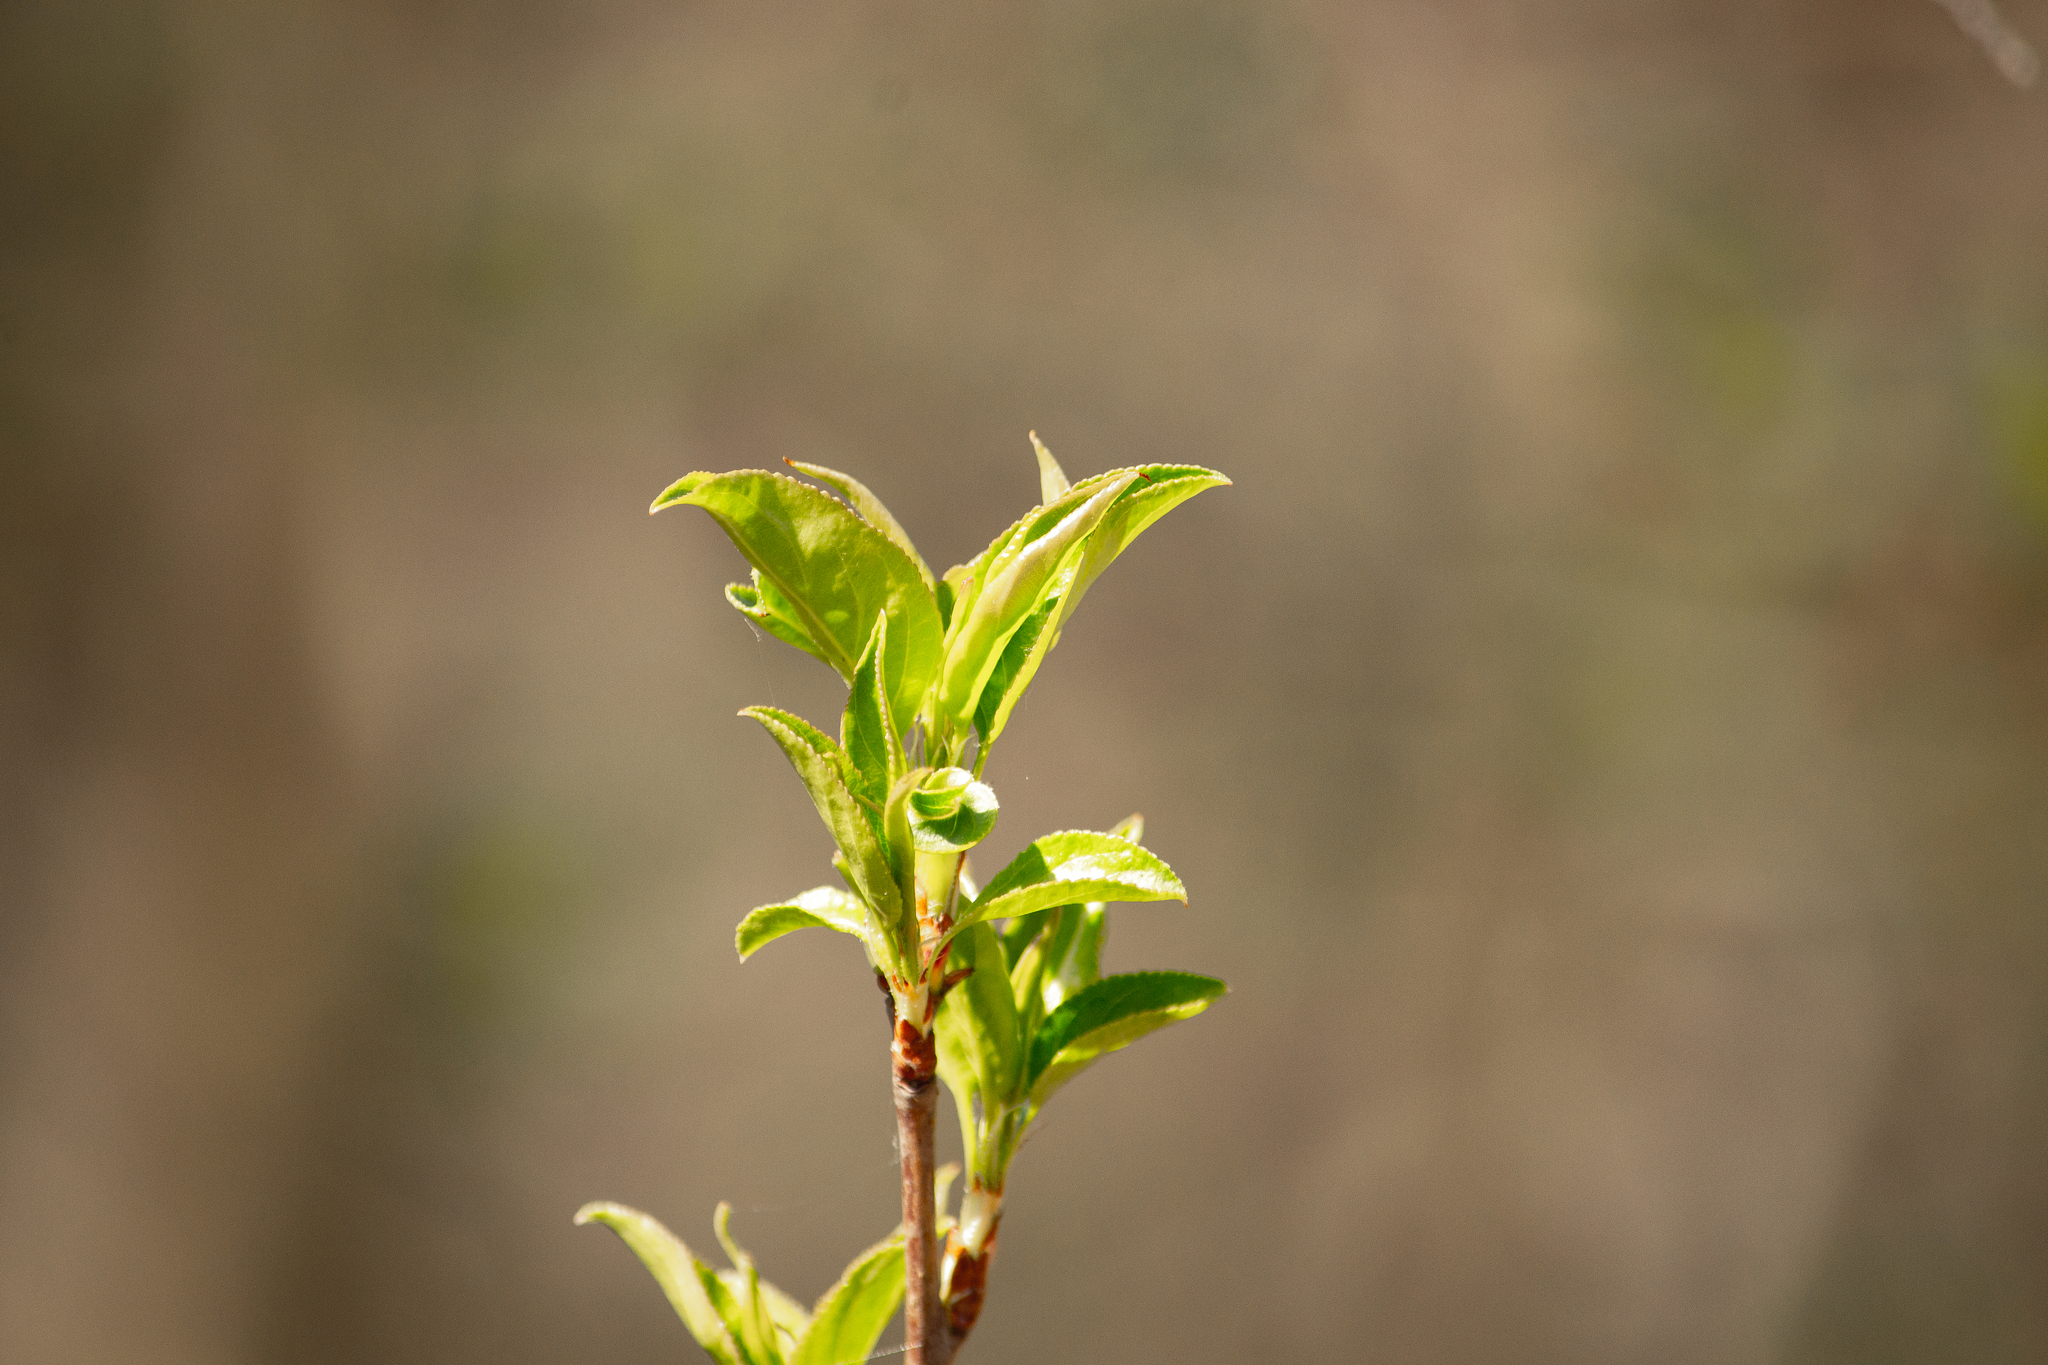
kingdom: Plantae
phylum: Tracheophyta
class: Magnoliopsida
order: Rosales
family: Rosaceae
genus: Malus
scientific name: Malus baccata
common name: Siberian crab
